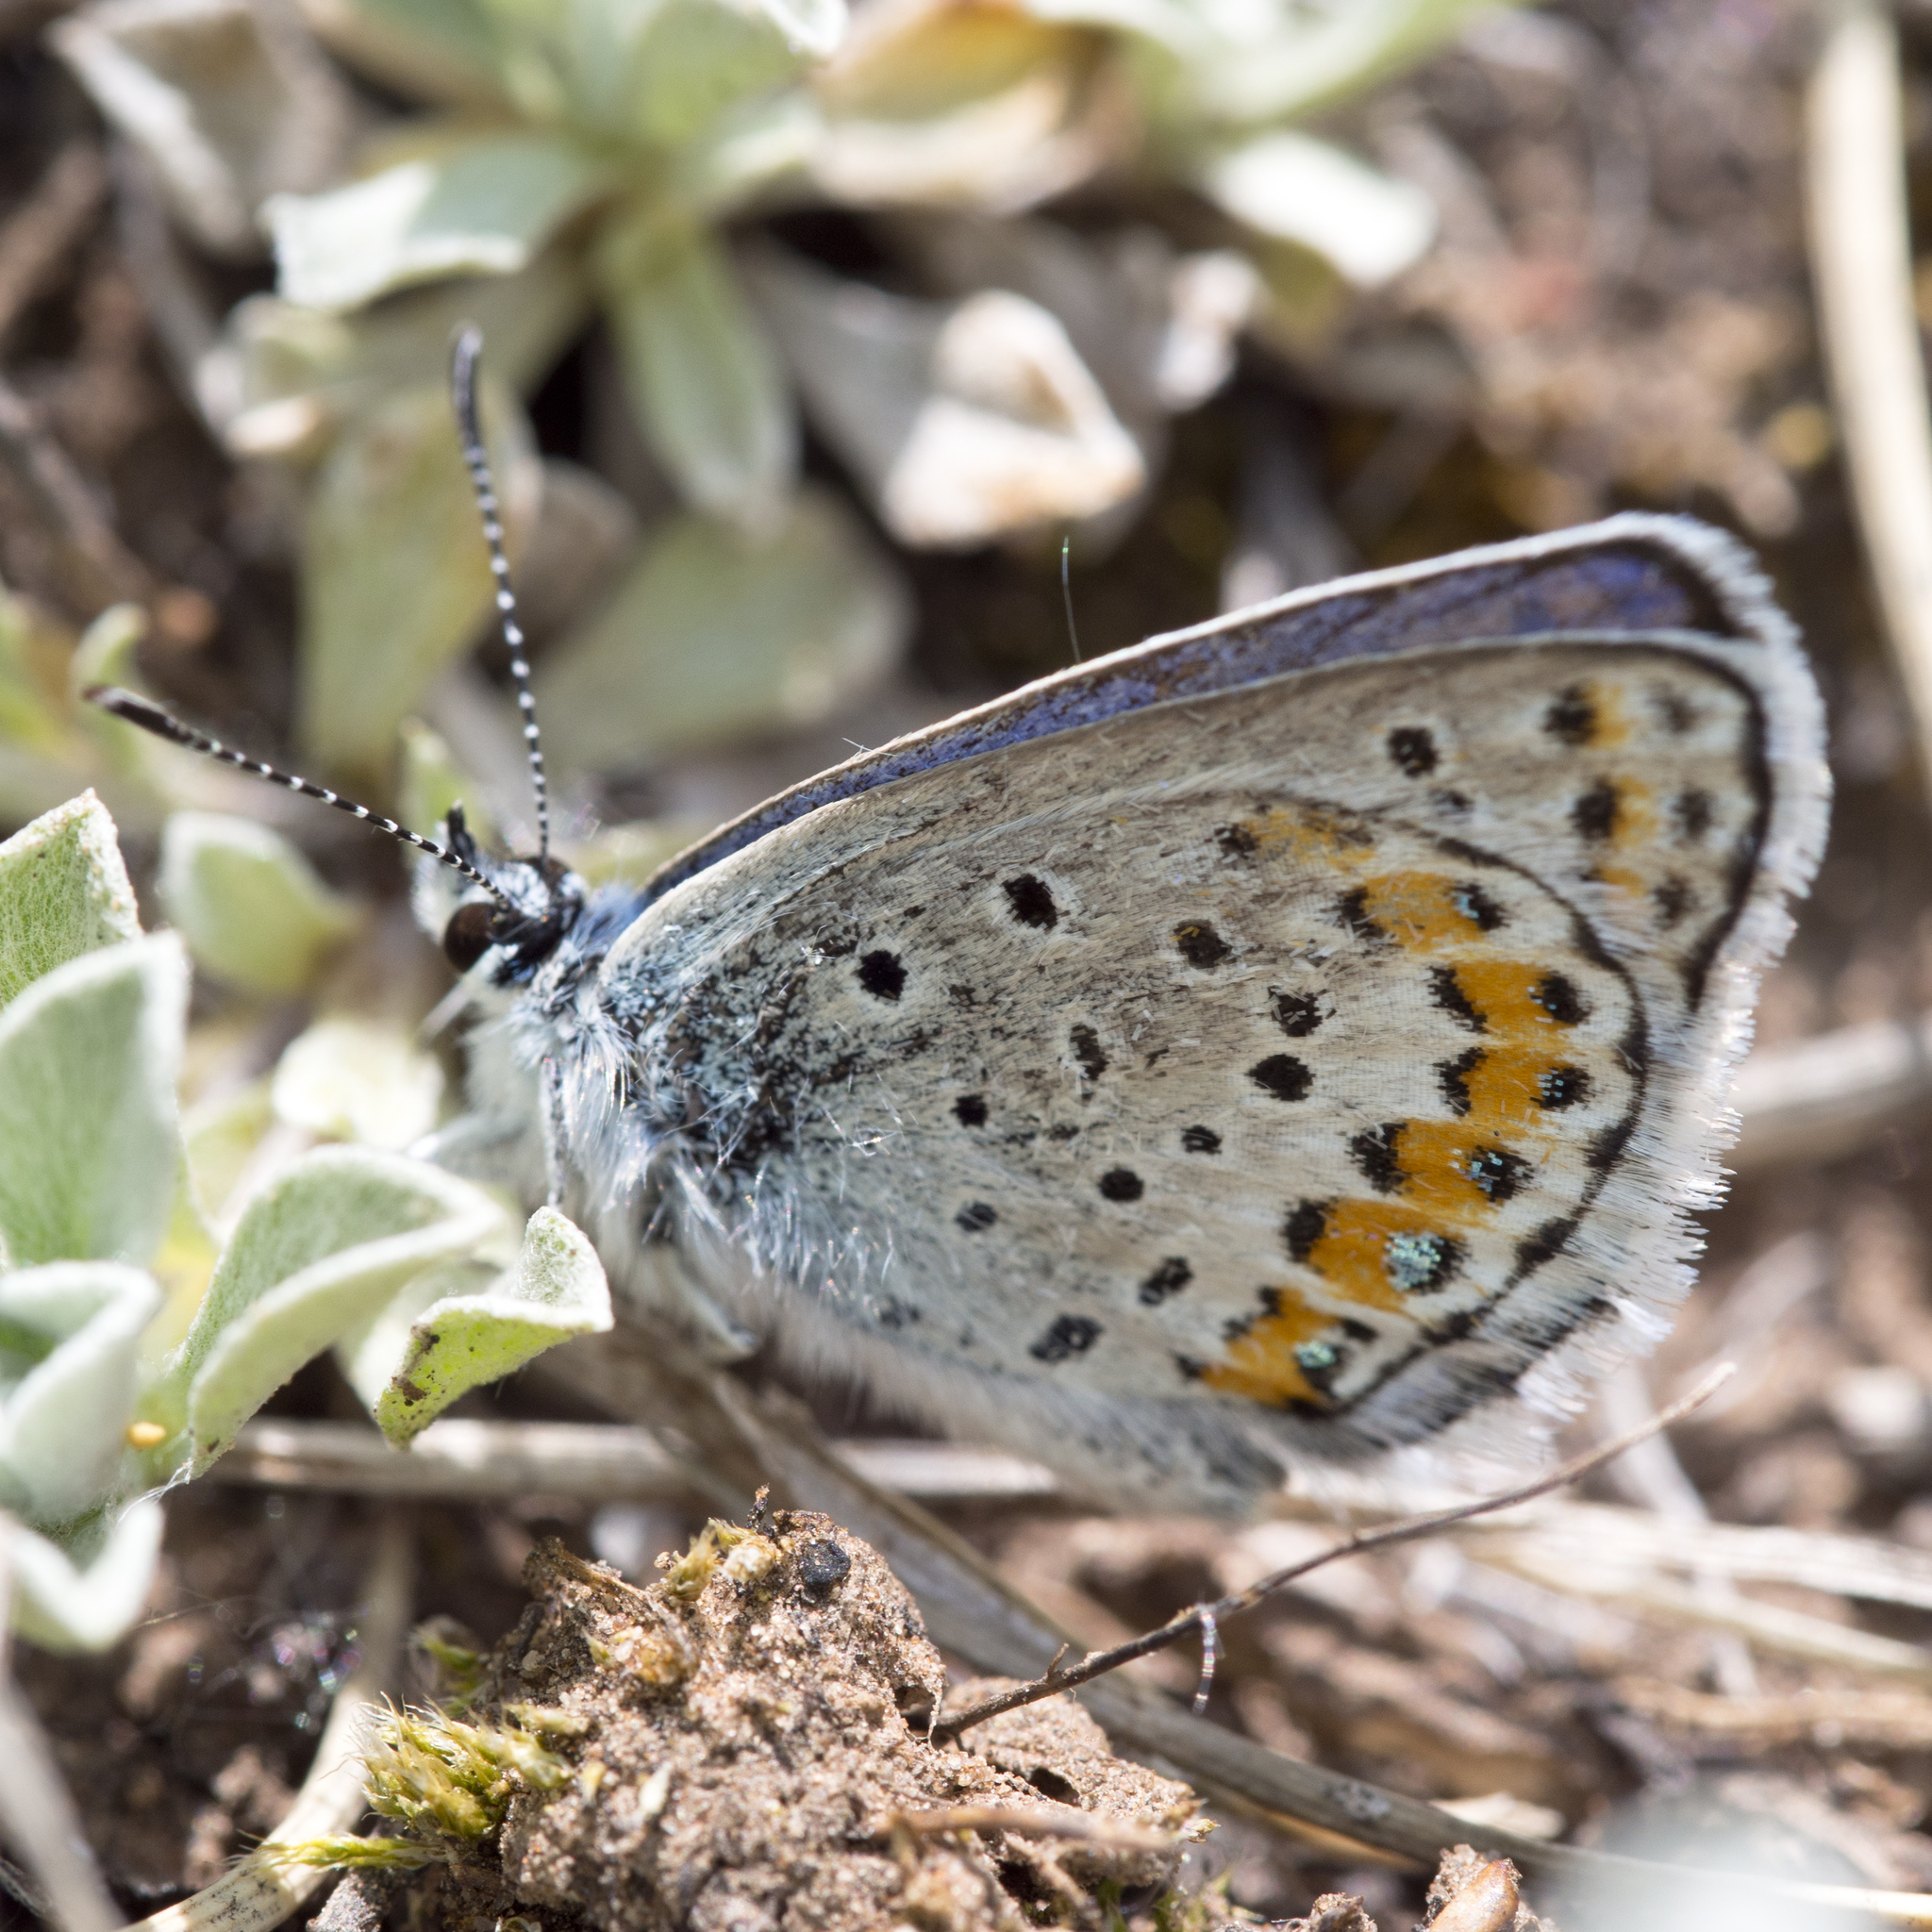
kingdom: Animalia
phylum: Arthropoda
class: Insecta
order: Lepidoptera
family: Lycaenidae
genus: Lycaeides
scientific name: Lycaeides melissa
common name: Melissa blue
